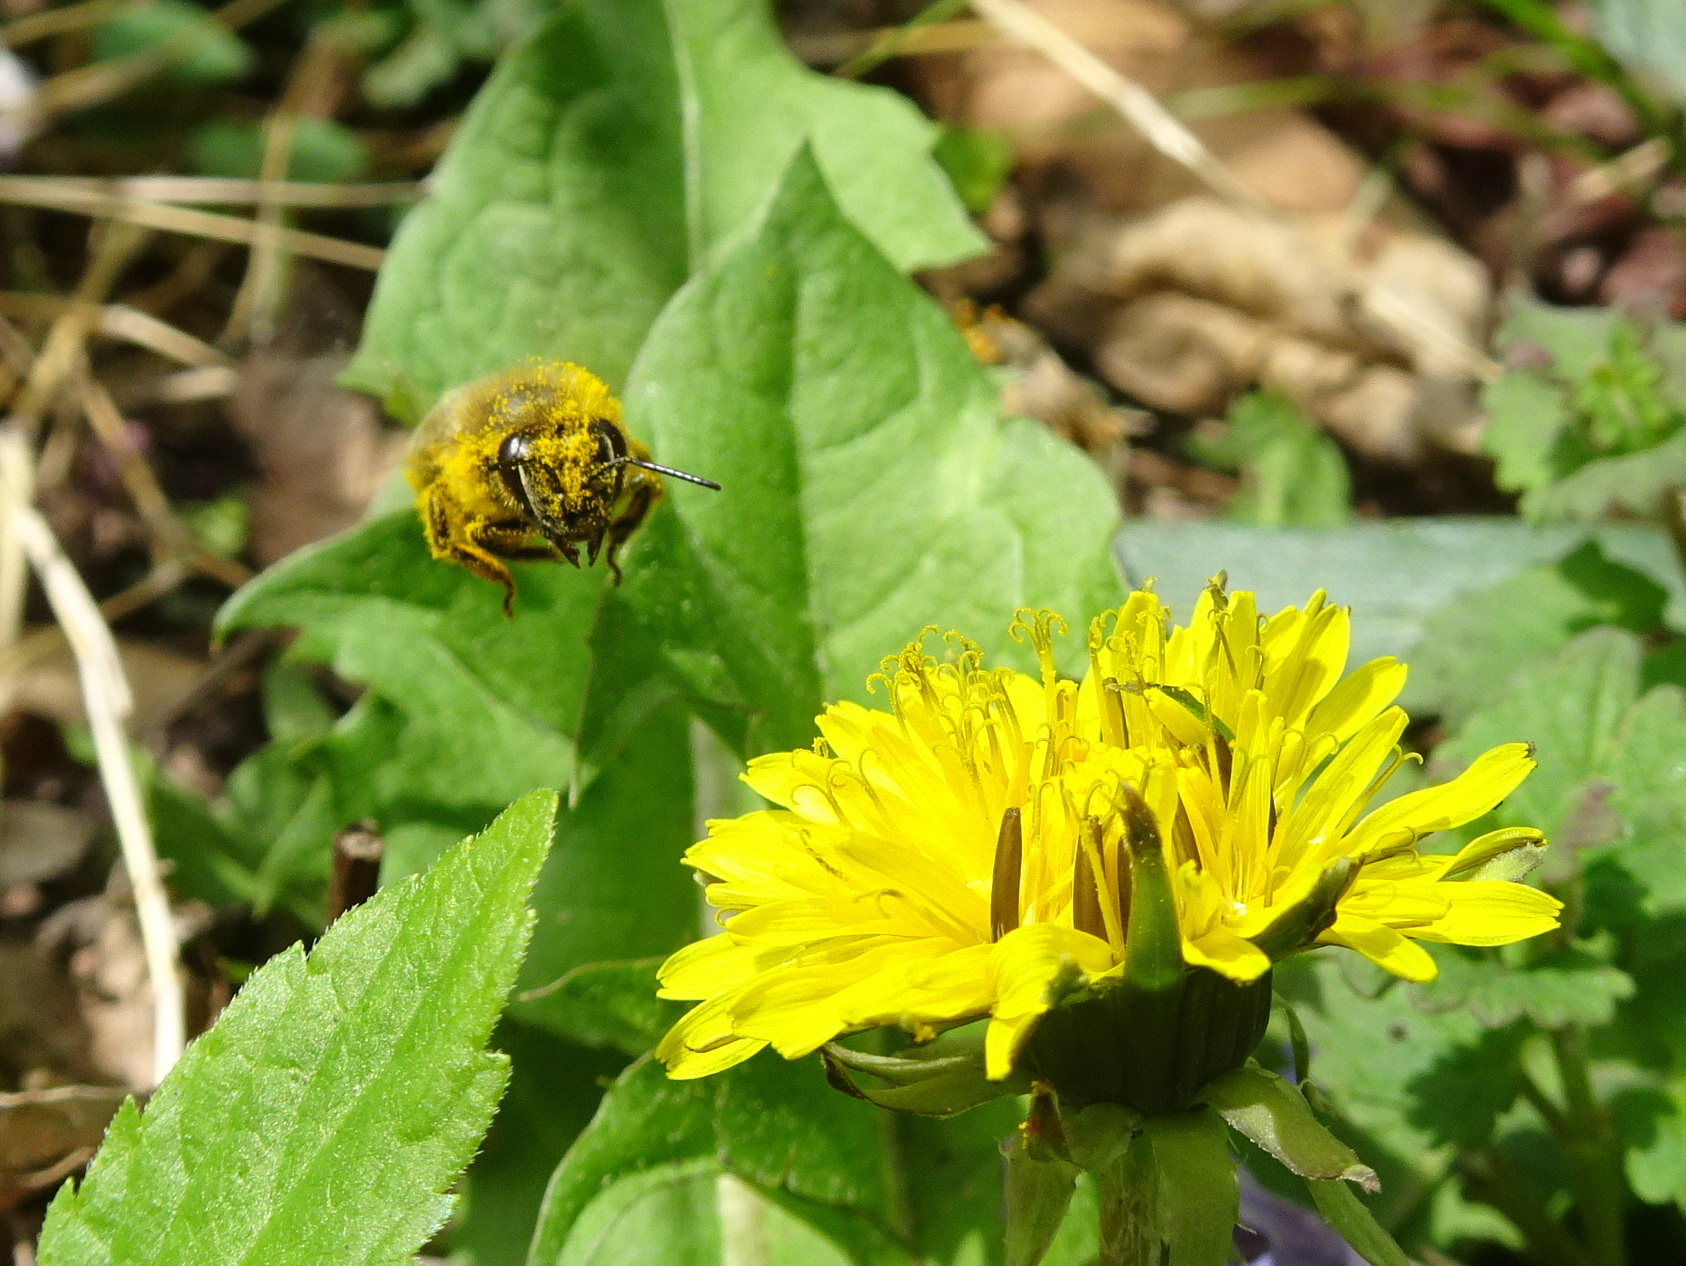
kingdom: Animalia
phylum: Arthropoda
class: Insecta
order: Hymenoptera
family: Apidae
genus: Apis
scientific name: Apis mellifera
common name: Honey bee
